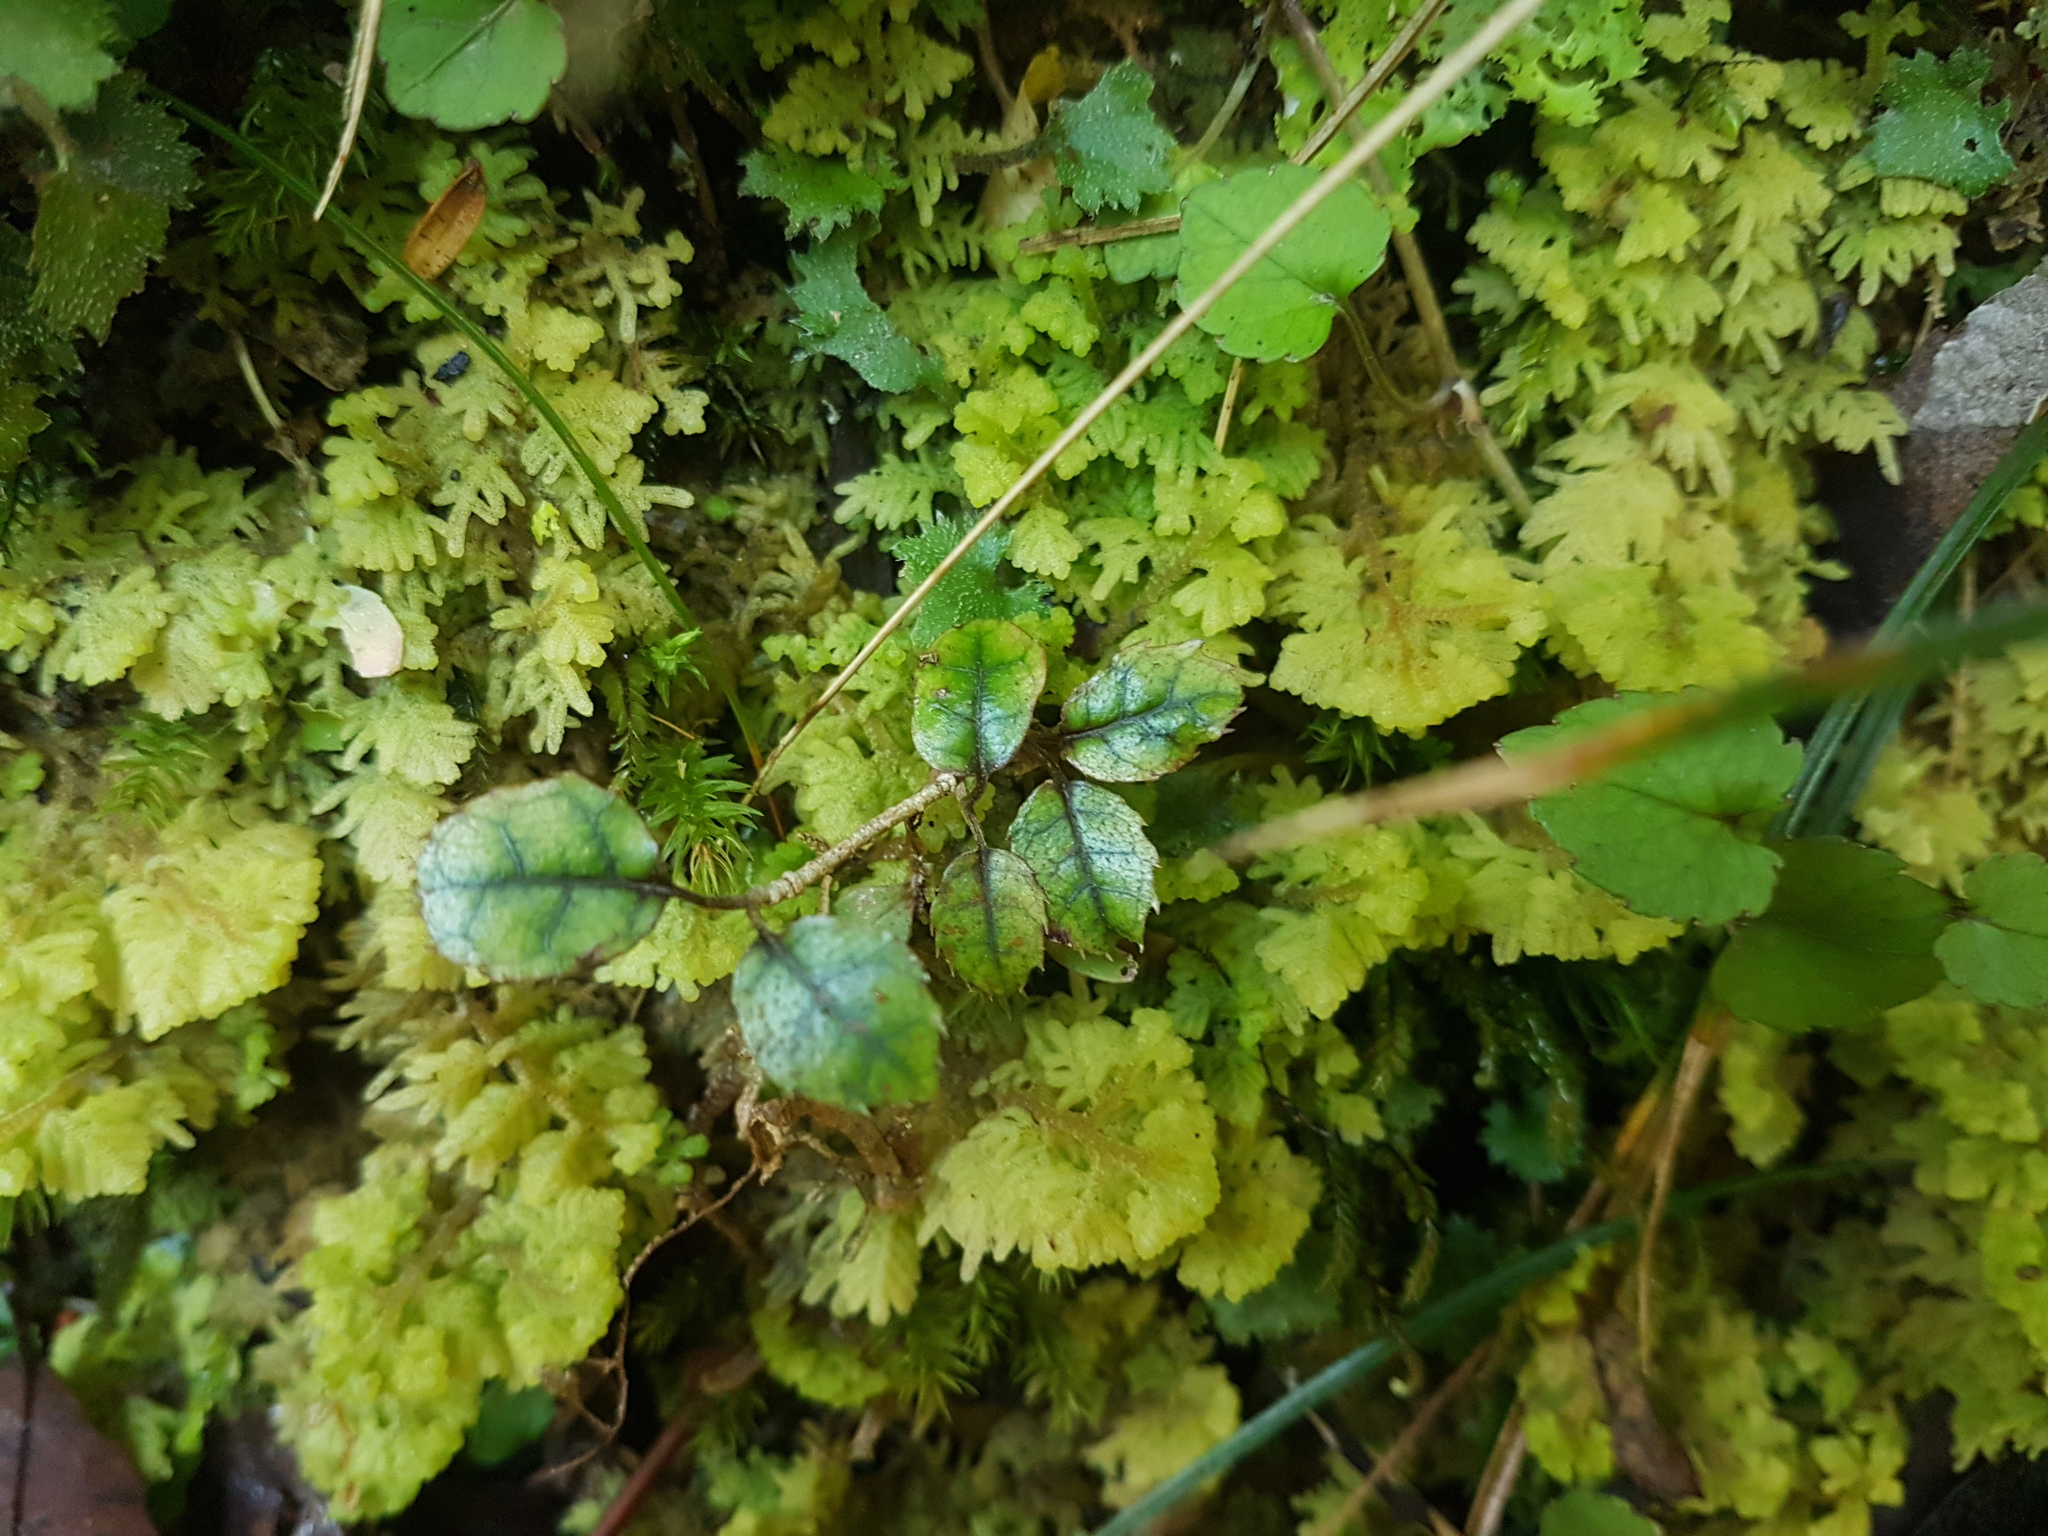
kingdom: Plantae
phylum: Tracheophyta
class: Magnoliopsida
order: Asterales
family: Rousseaceae
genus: Carpodetus
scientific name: Carpodetus serratus
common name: White mapau
